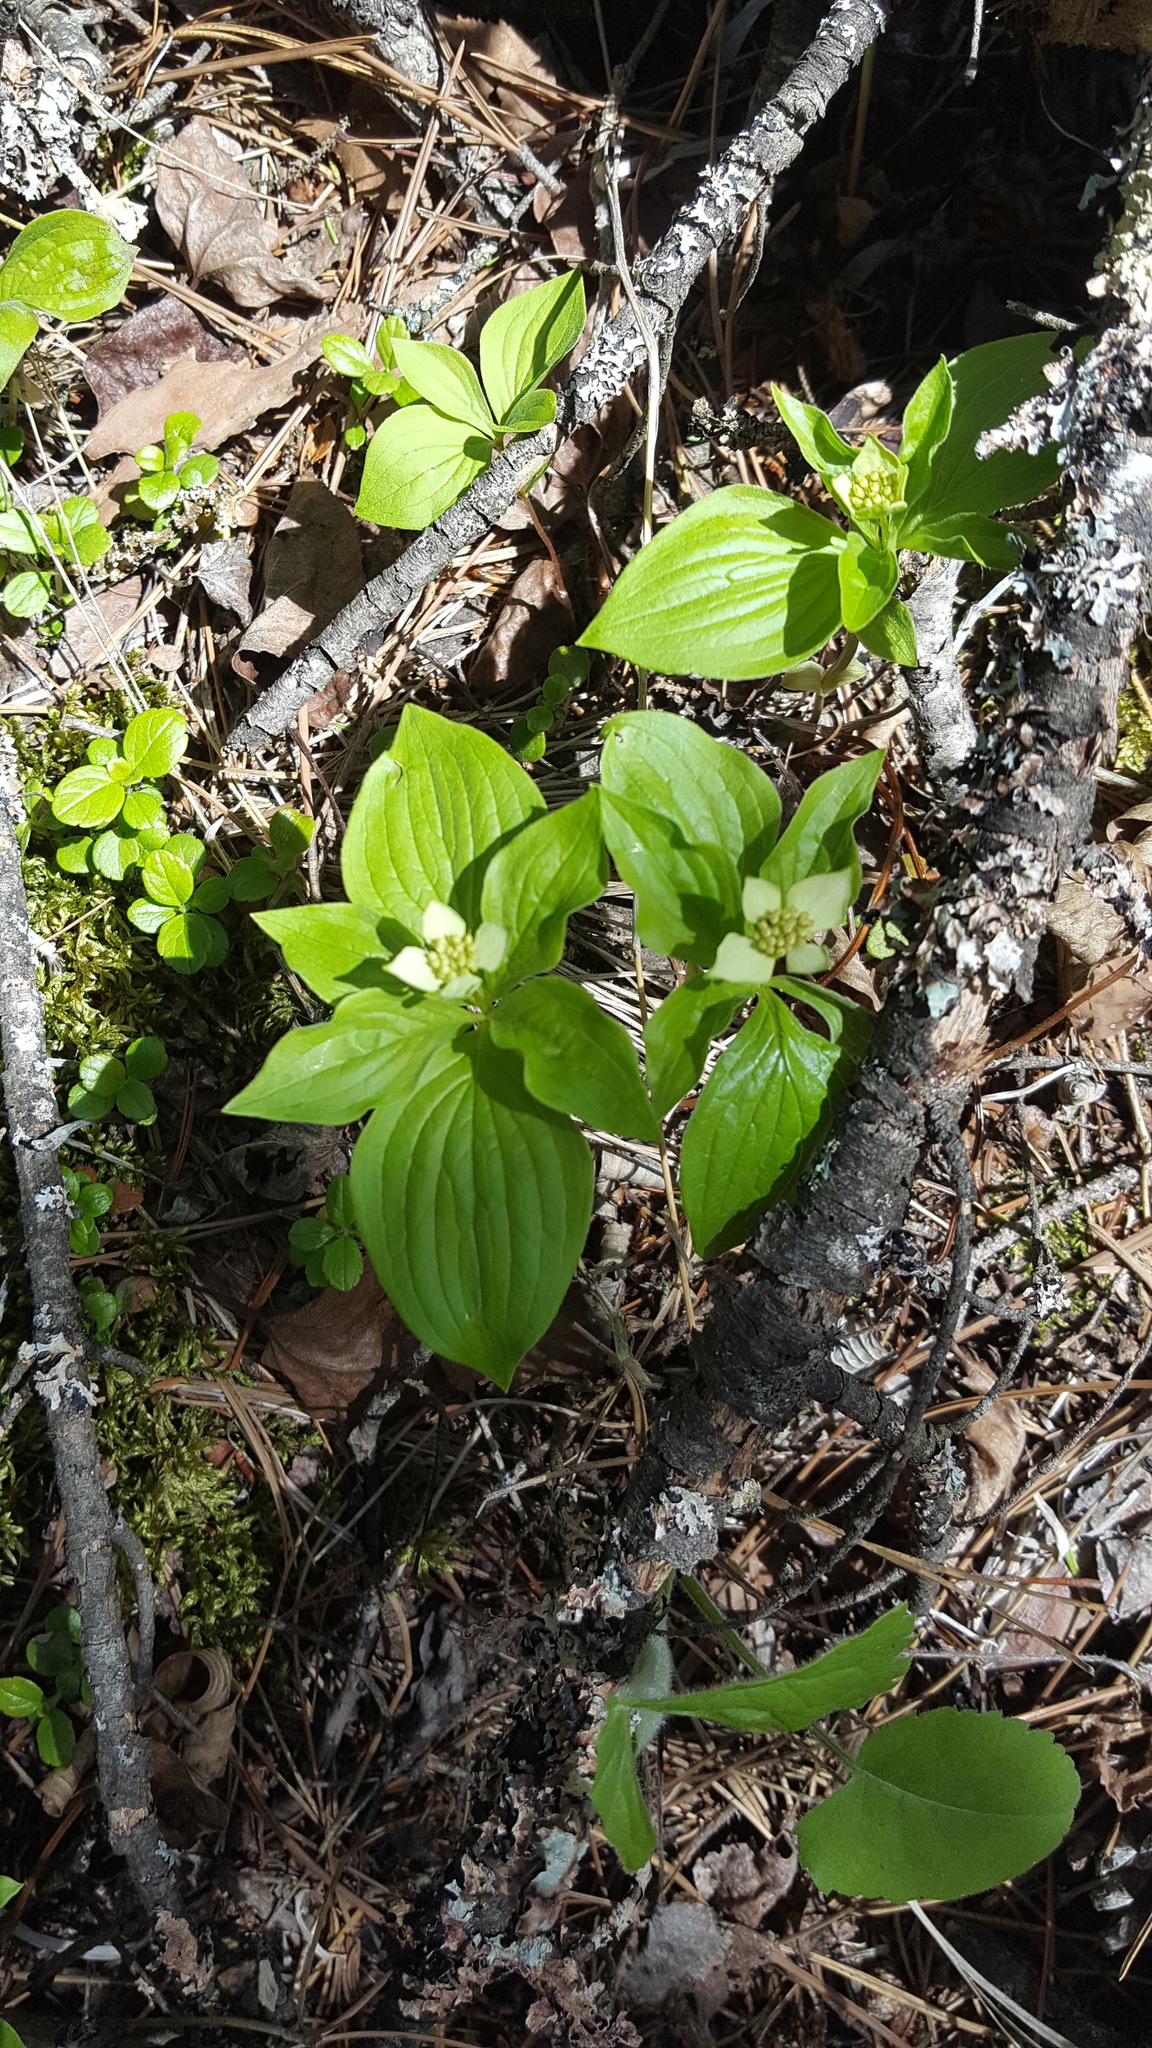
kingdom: Plantae
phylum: Tracheophyta
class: Magnoliopsida
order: Cornales
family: Cornaceae
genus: Cornus
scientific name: Cornus canadensis
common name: Creeping dogwood
